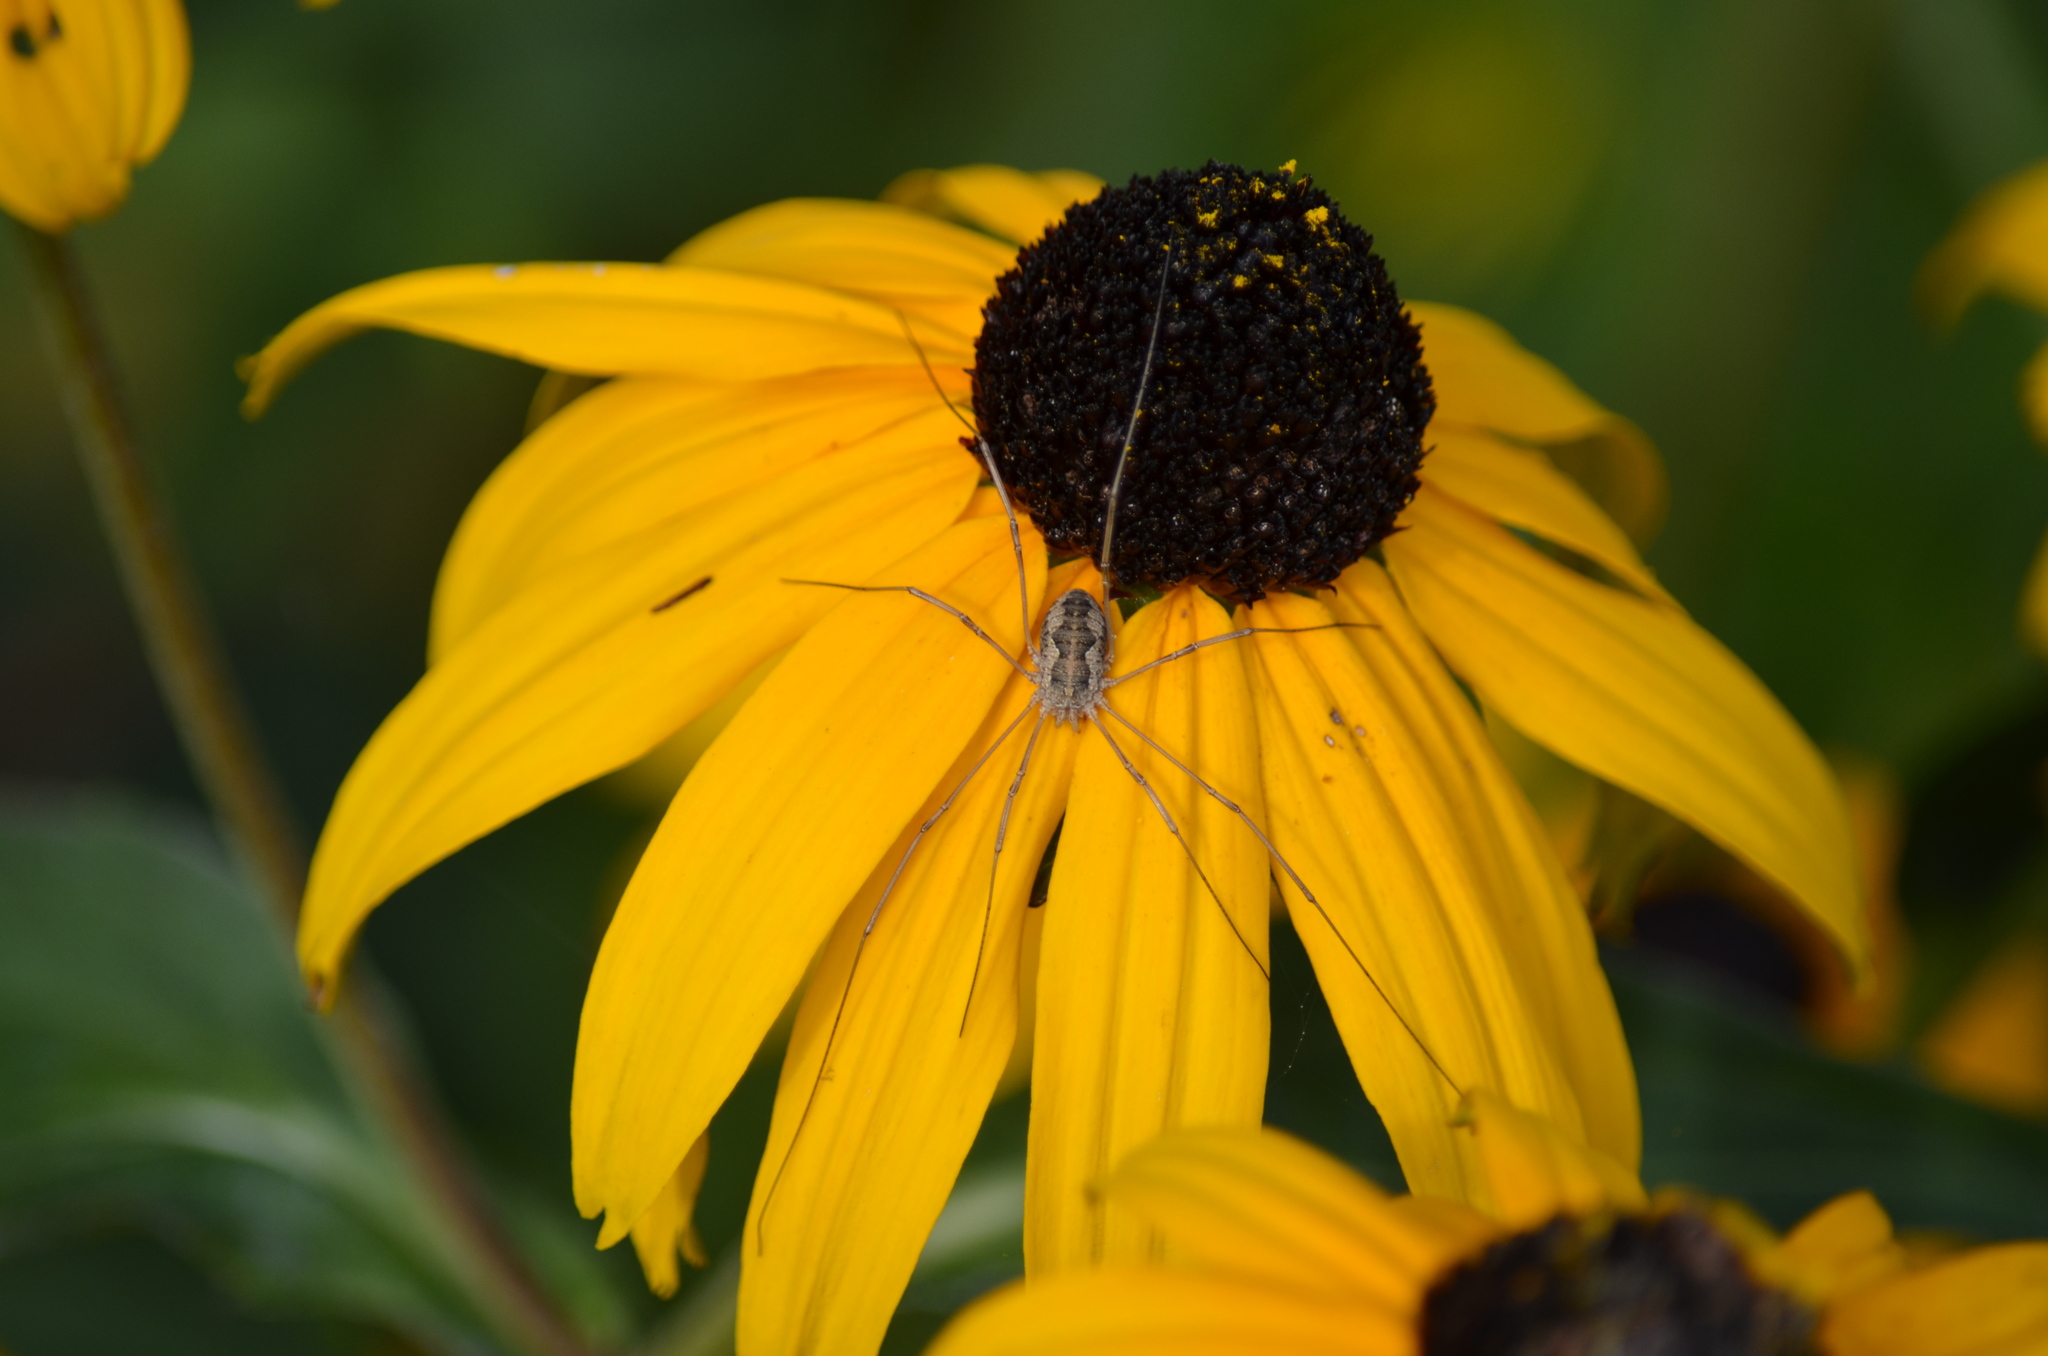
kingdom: Animalia
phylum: Arthropoda
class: Arachnida
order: Opiliones
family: Phalangiidae
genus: Phalangium
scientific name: Phalangium opilio
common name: Daddy longleg
